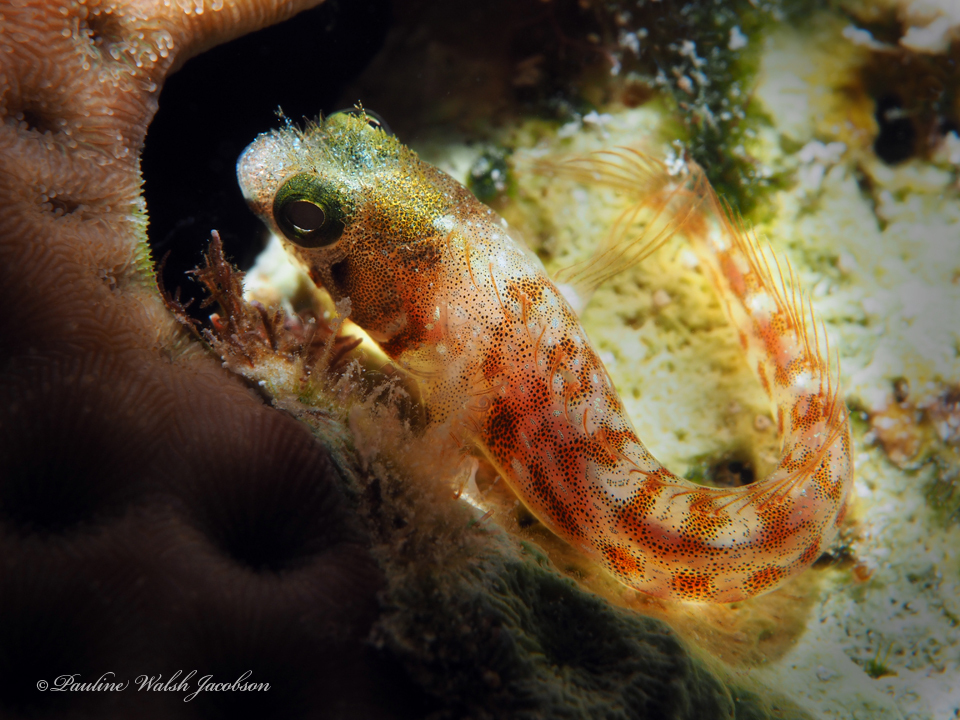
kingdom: Animalia
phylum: Chordata
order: Perciformes
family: Chaenopsidae
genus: Acanthemblemaria
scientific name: Acanthemblemaria spinosa
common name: Spinyhead blenny
